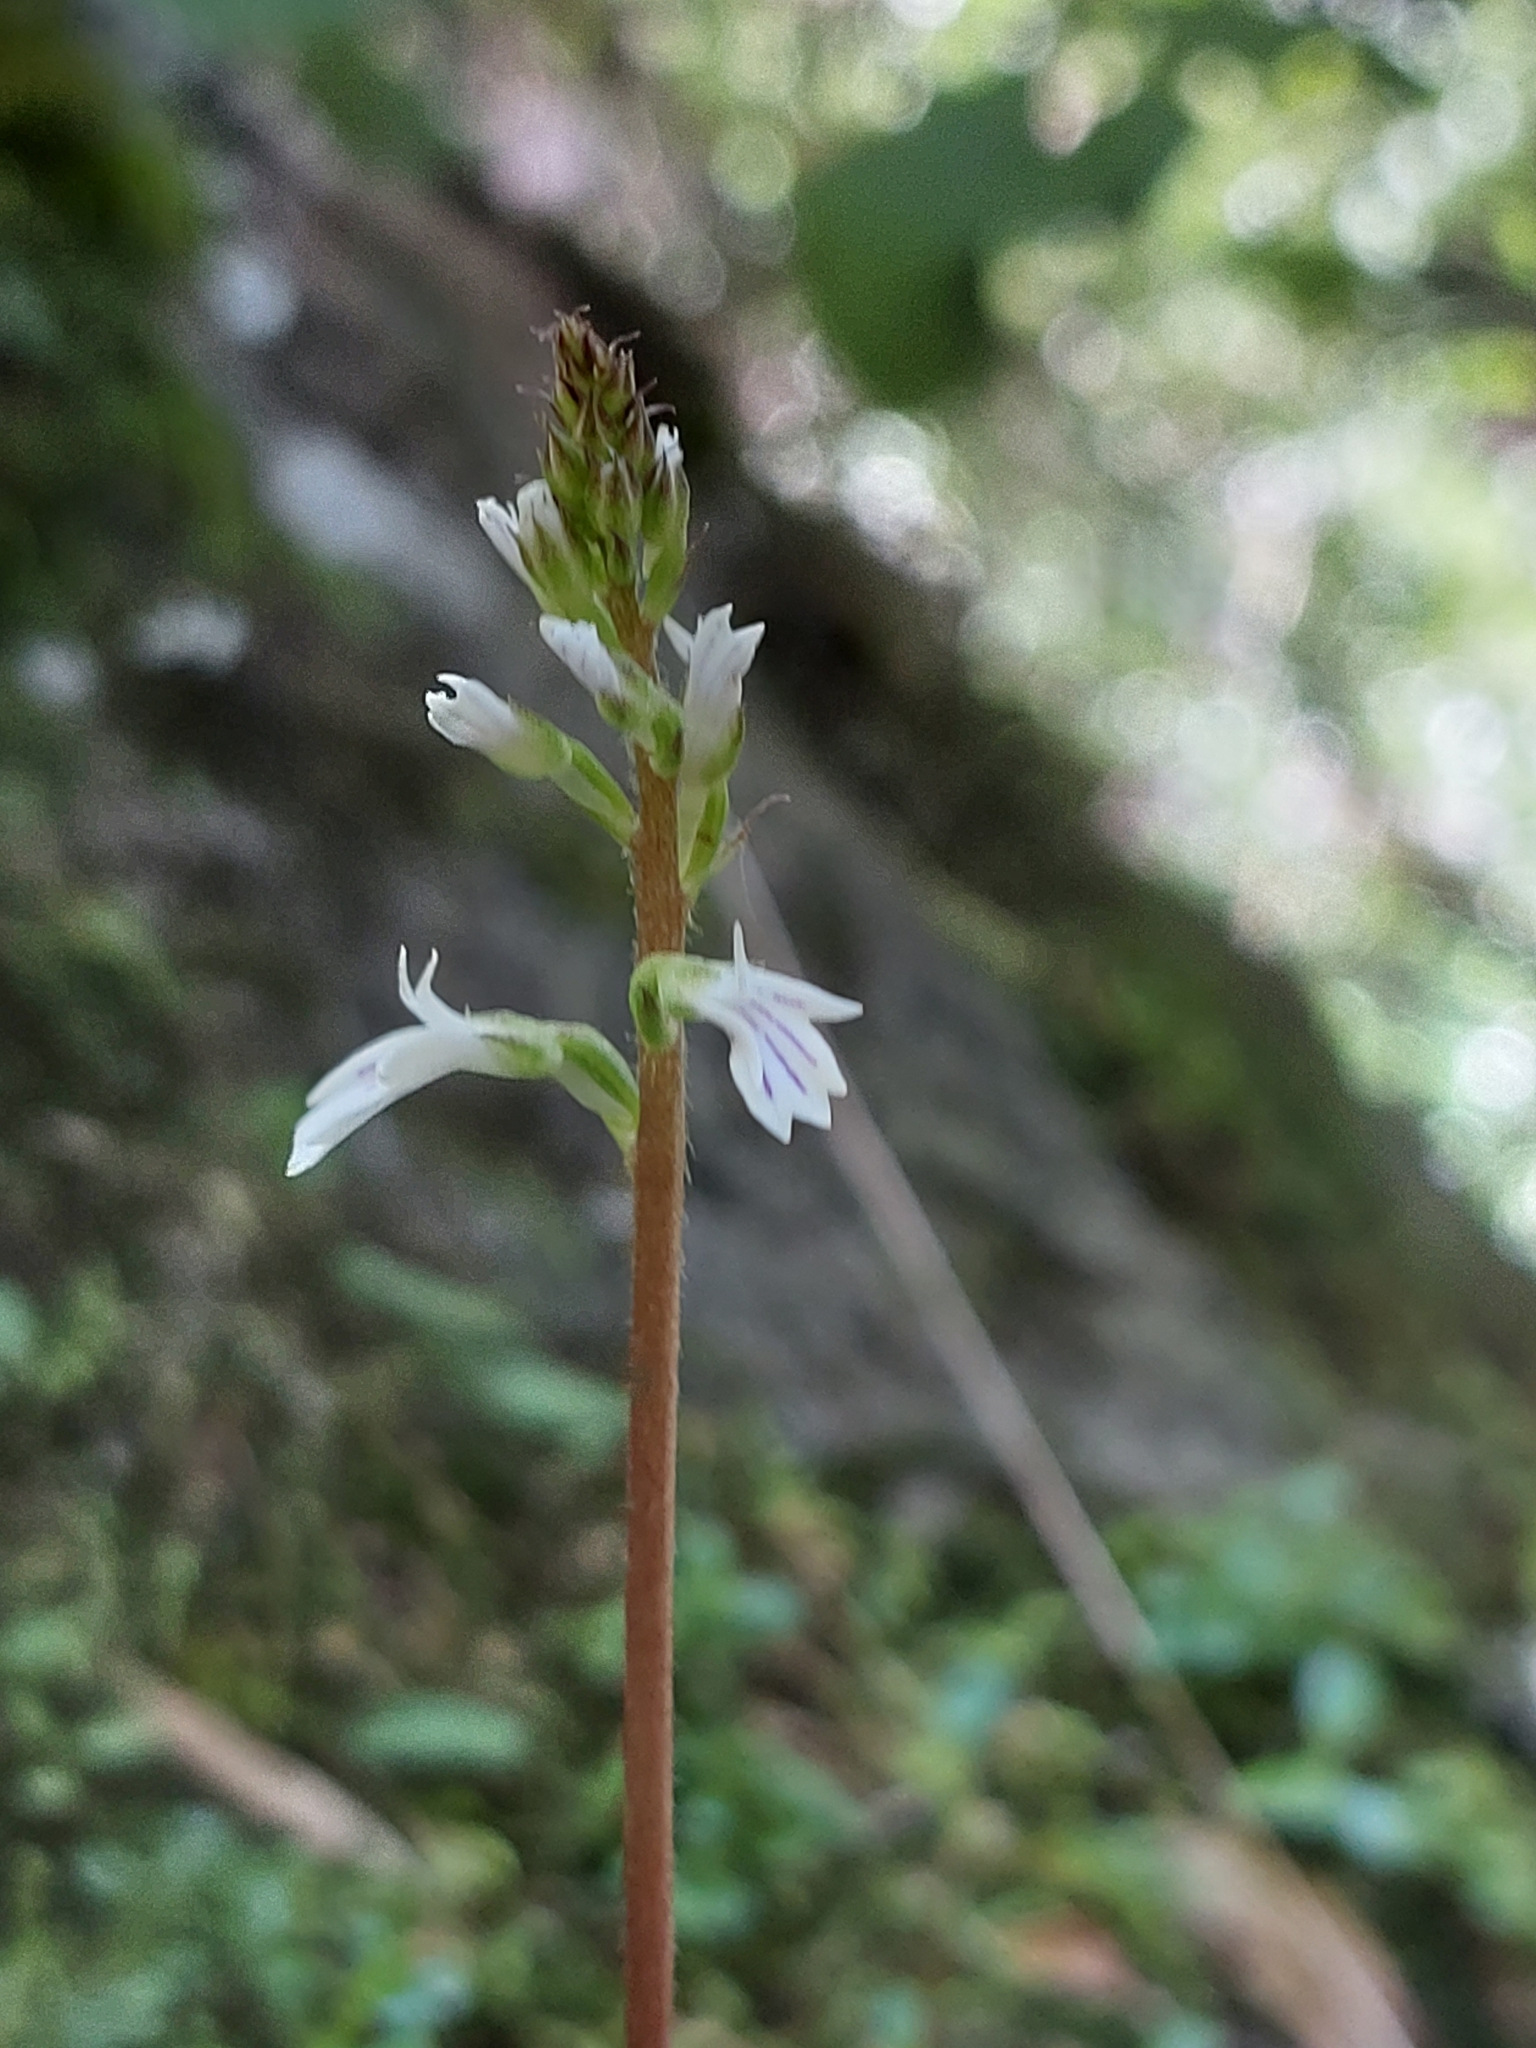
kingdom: Plantae
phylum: Tracheophyta
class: Liliopsida
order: Asparagales
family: Orchidaceae
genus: Holothrix
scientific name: Holothrix orthoceras
